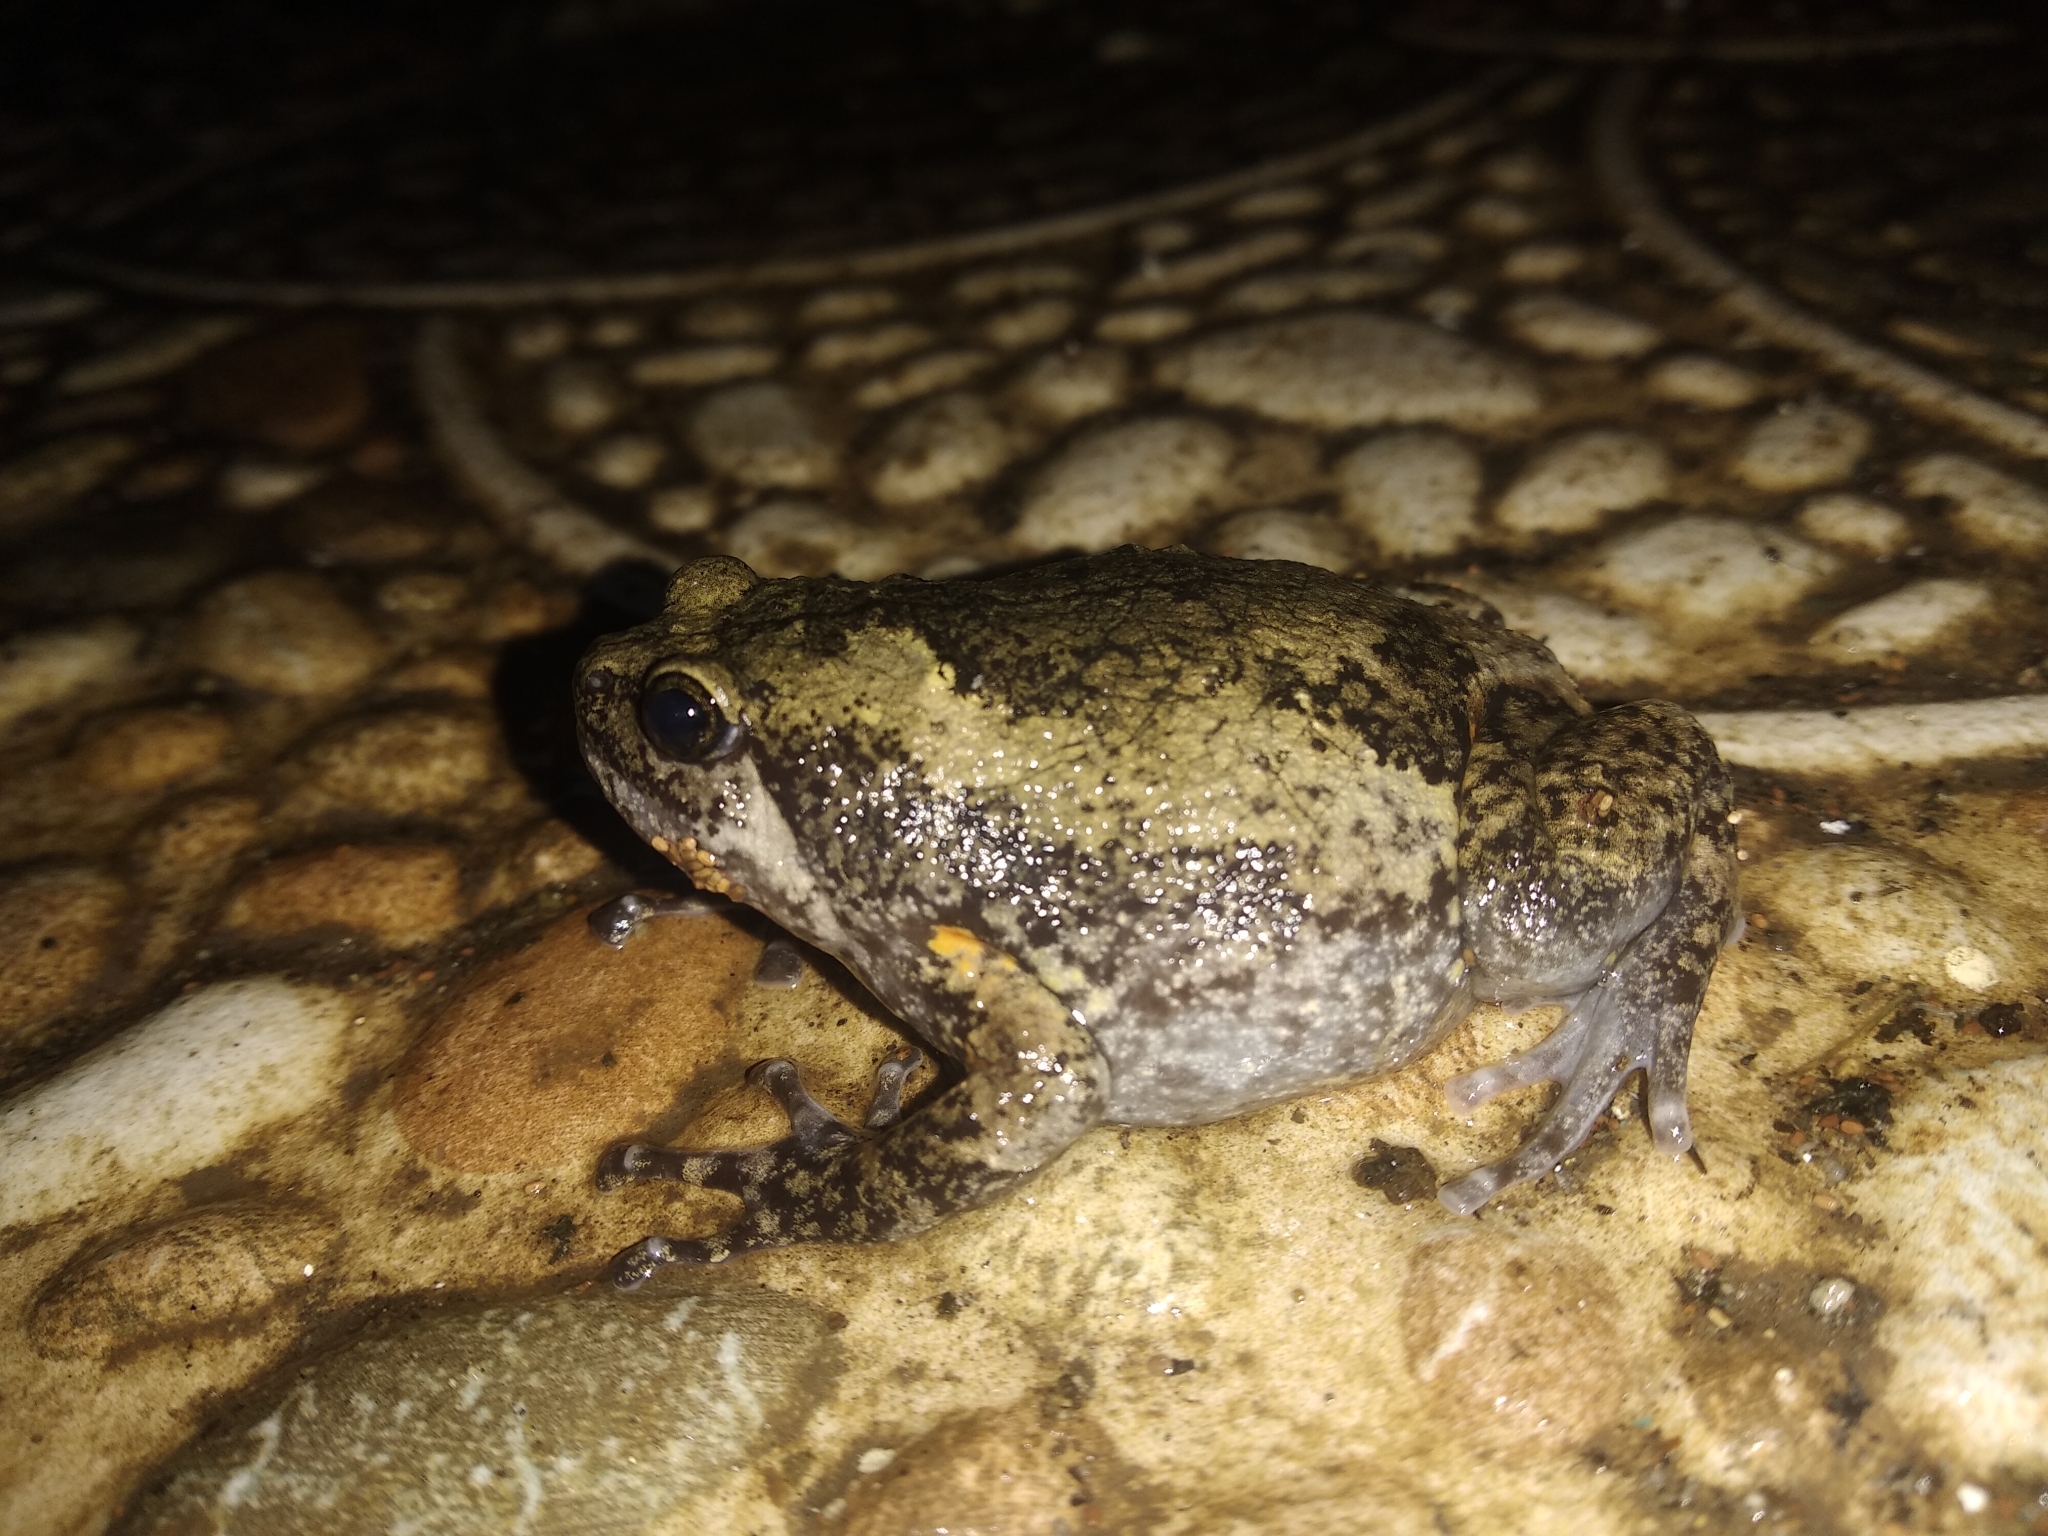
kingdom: Animalia
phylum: Chordata
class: Amphibia
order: Anura
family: Microhylidae
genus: Kaloula
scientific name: Kaloula baleata
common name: Brown,javanese bullfrog
